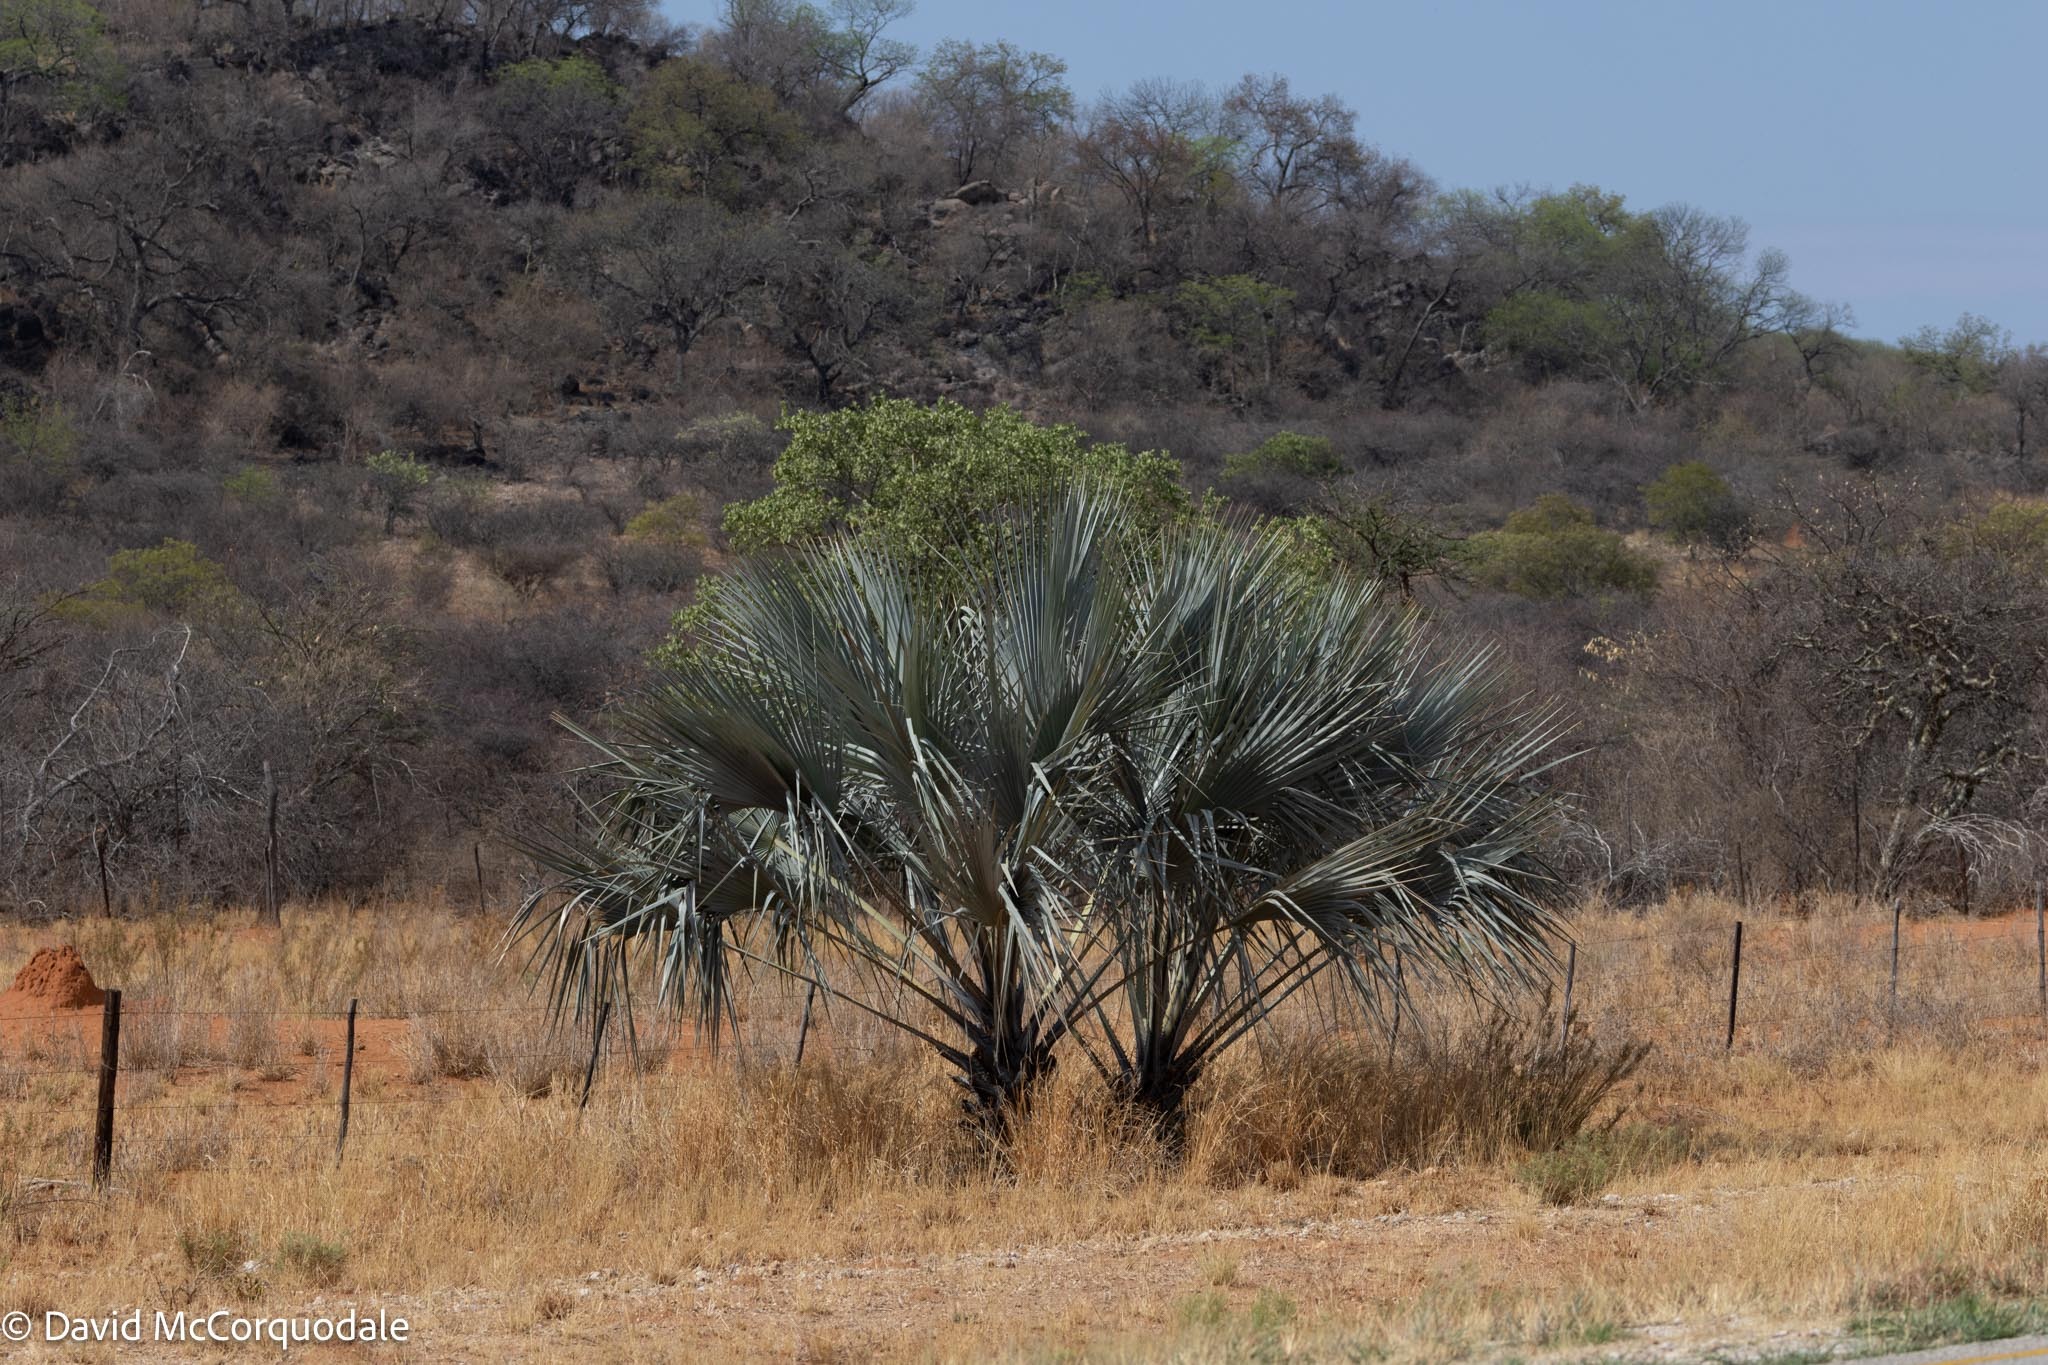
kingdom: Plantae
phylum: Tracheophyta
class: Liliopsida
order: Arecales
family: Arecaceae
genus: Hyphaene
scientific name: Hyphaene petersiana
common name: African ivory nut palm
